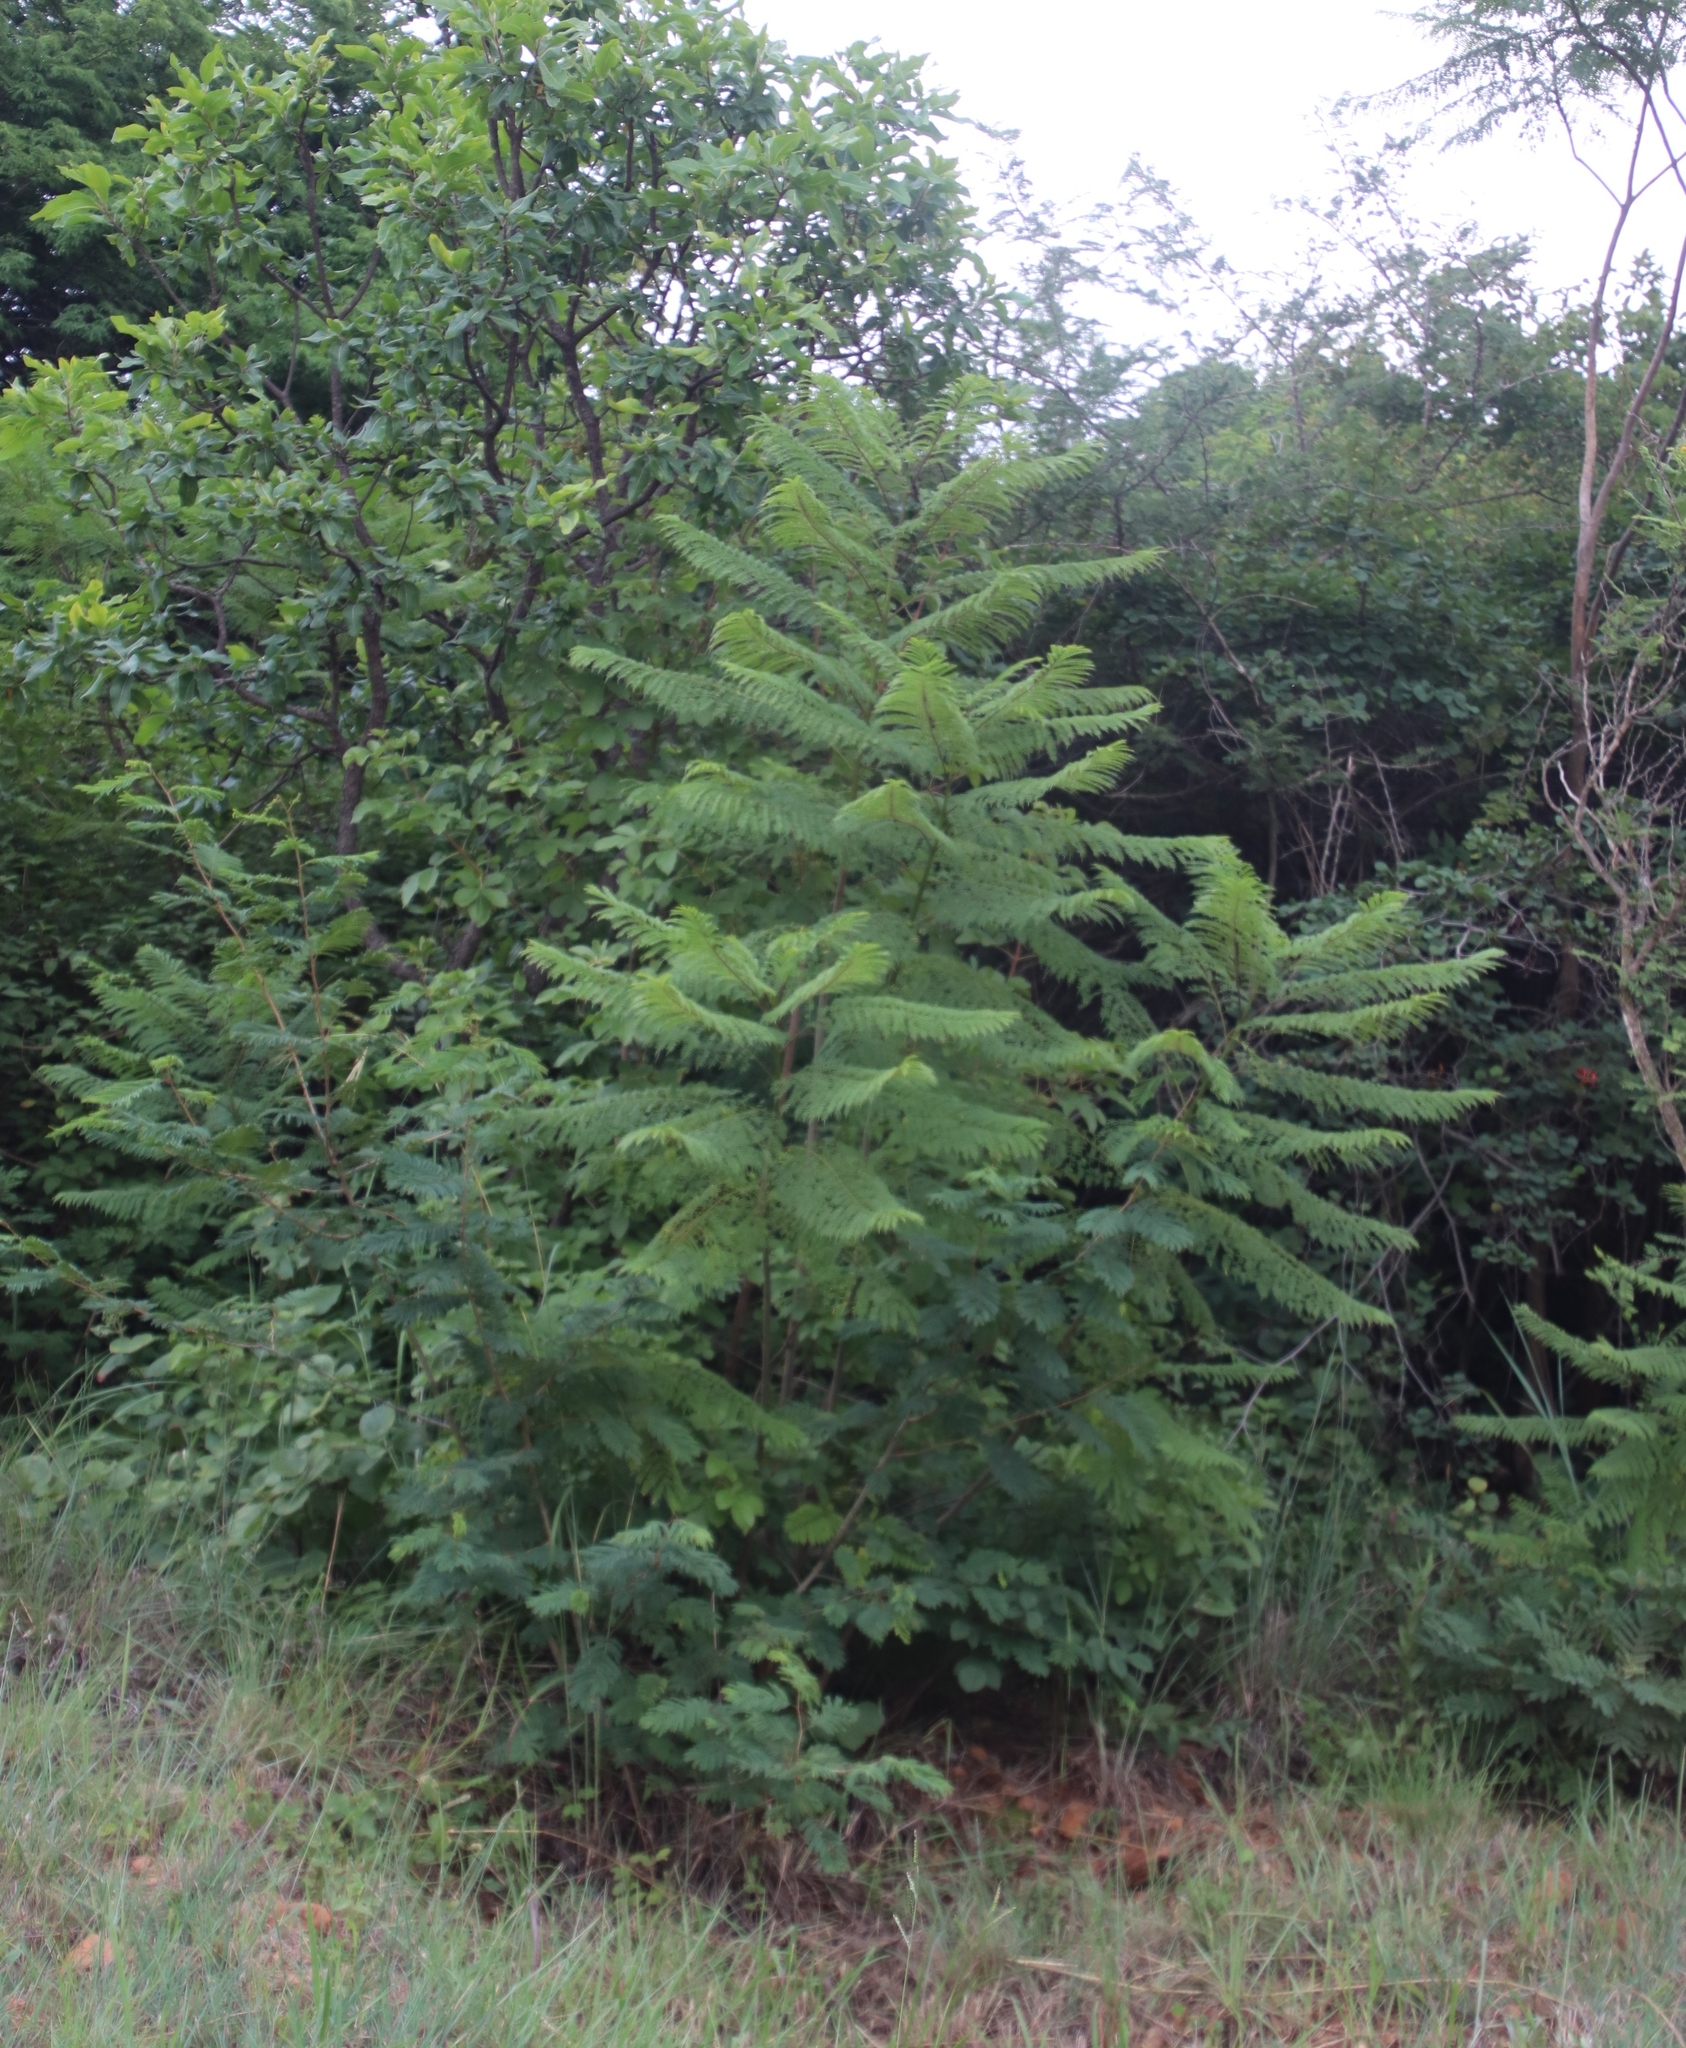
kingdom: Plantae
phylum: Tracheophyta
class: Magnoliopsida
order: Lamiales
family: Bignoniaceae
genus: Jacaranda
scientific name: Jacaranda mimosifolia
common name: Black poui
